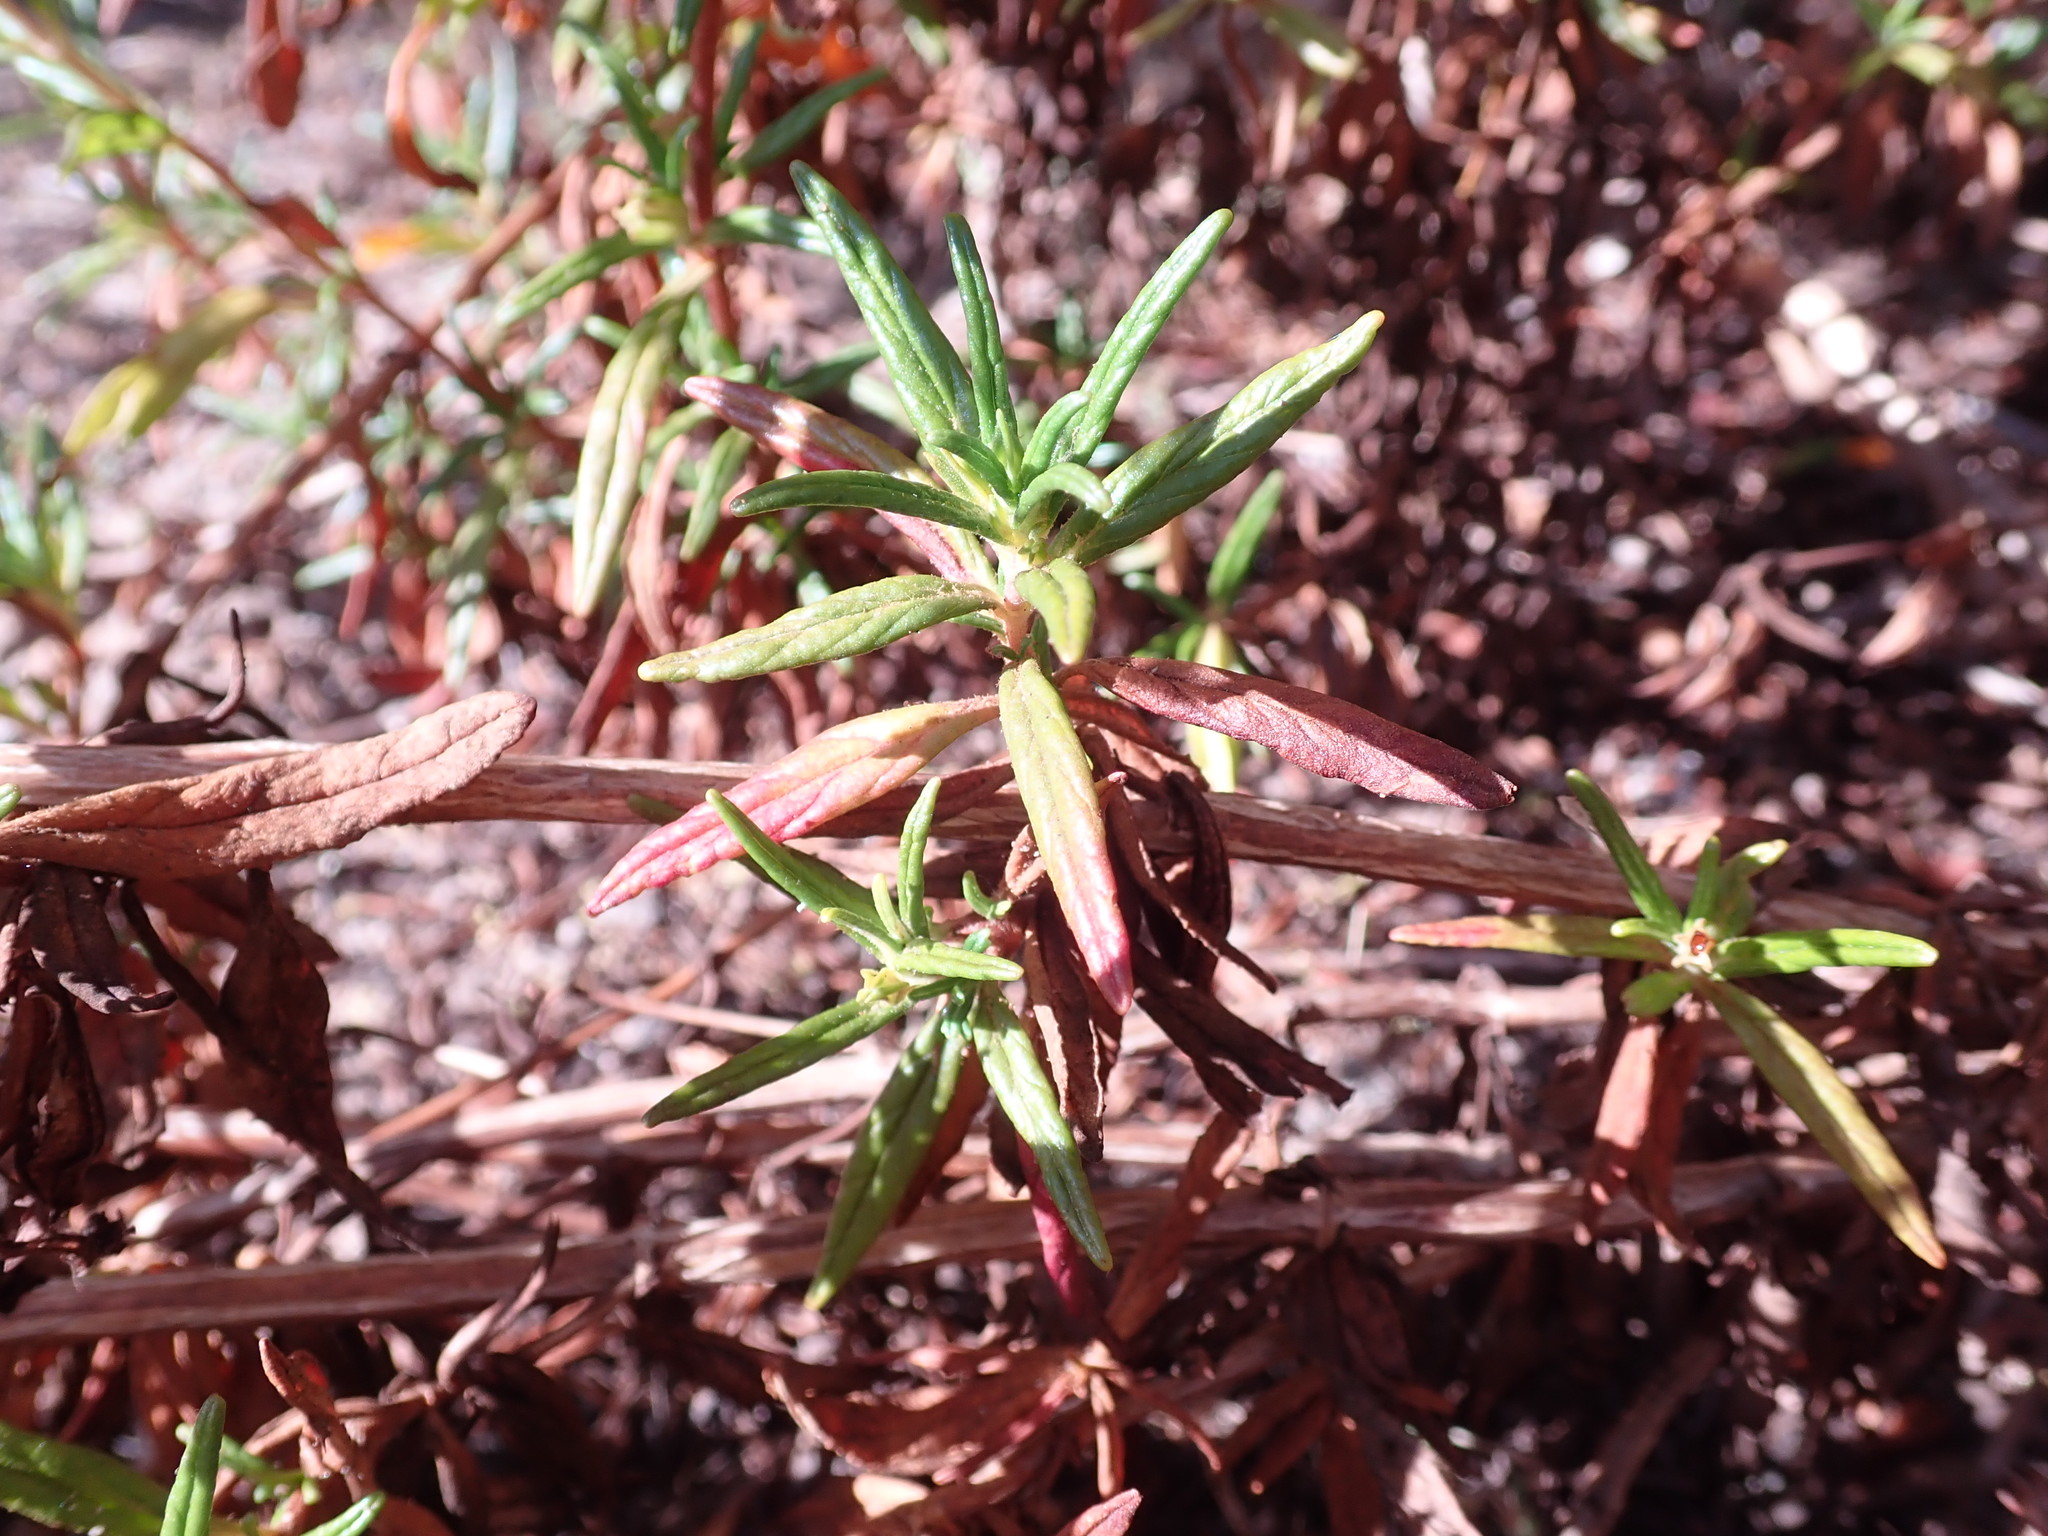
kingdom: Plantae
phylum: Tracheophyta
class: Magnoliopsida
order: Lamiales
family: Phrymaceae
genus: Diplacus
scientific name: Diplacus aurantiacus
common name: Bush monkey-flower
